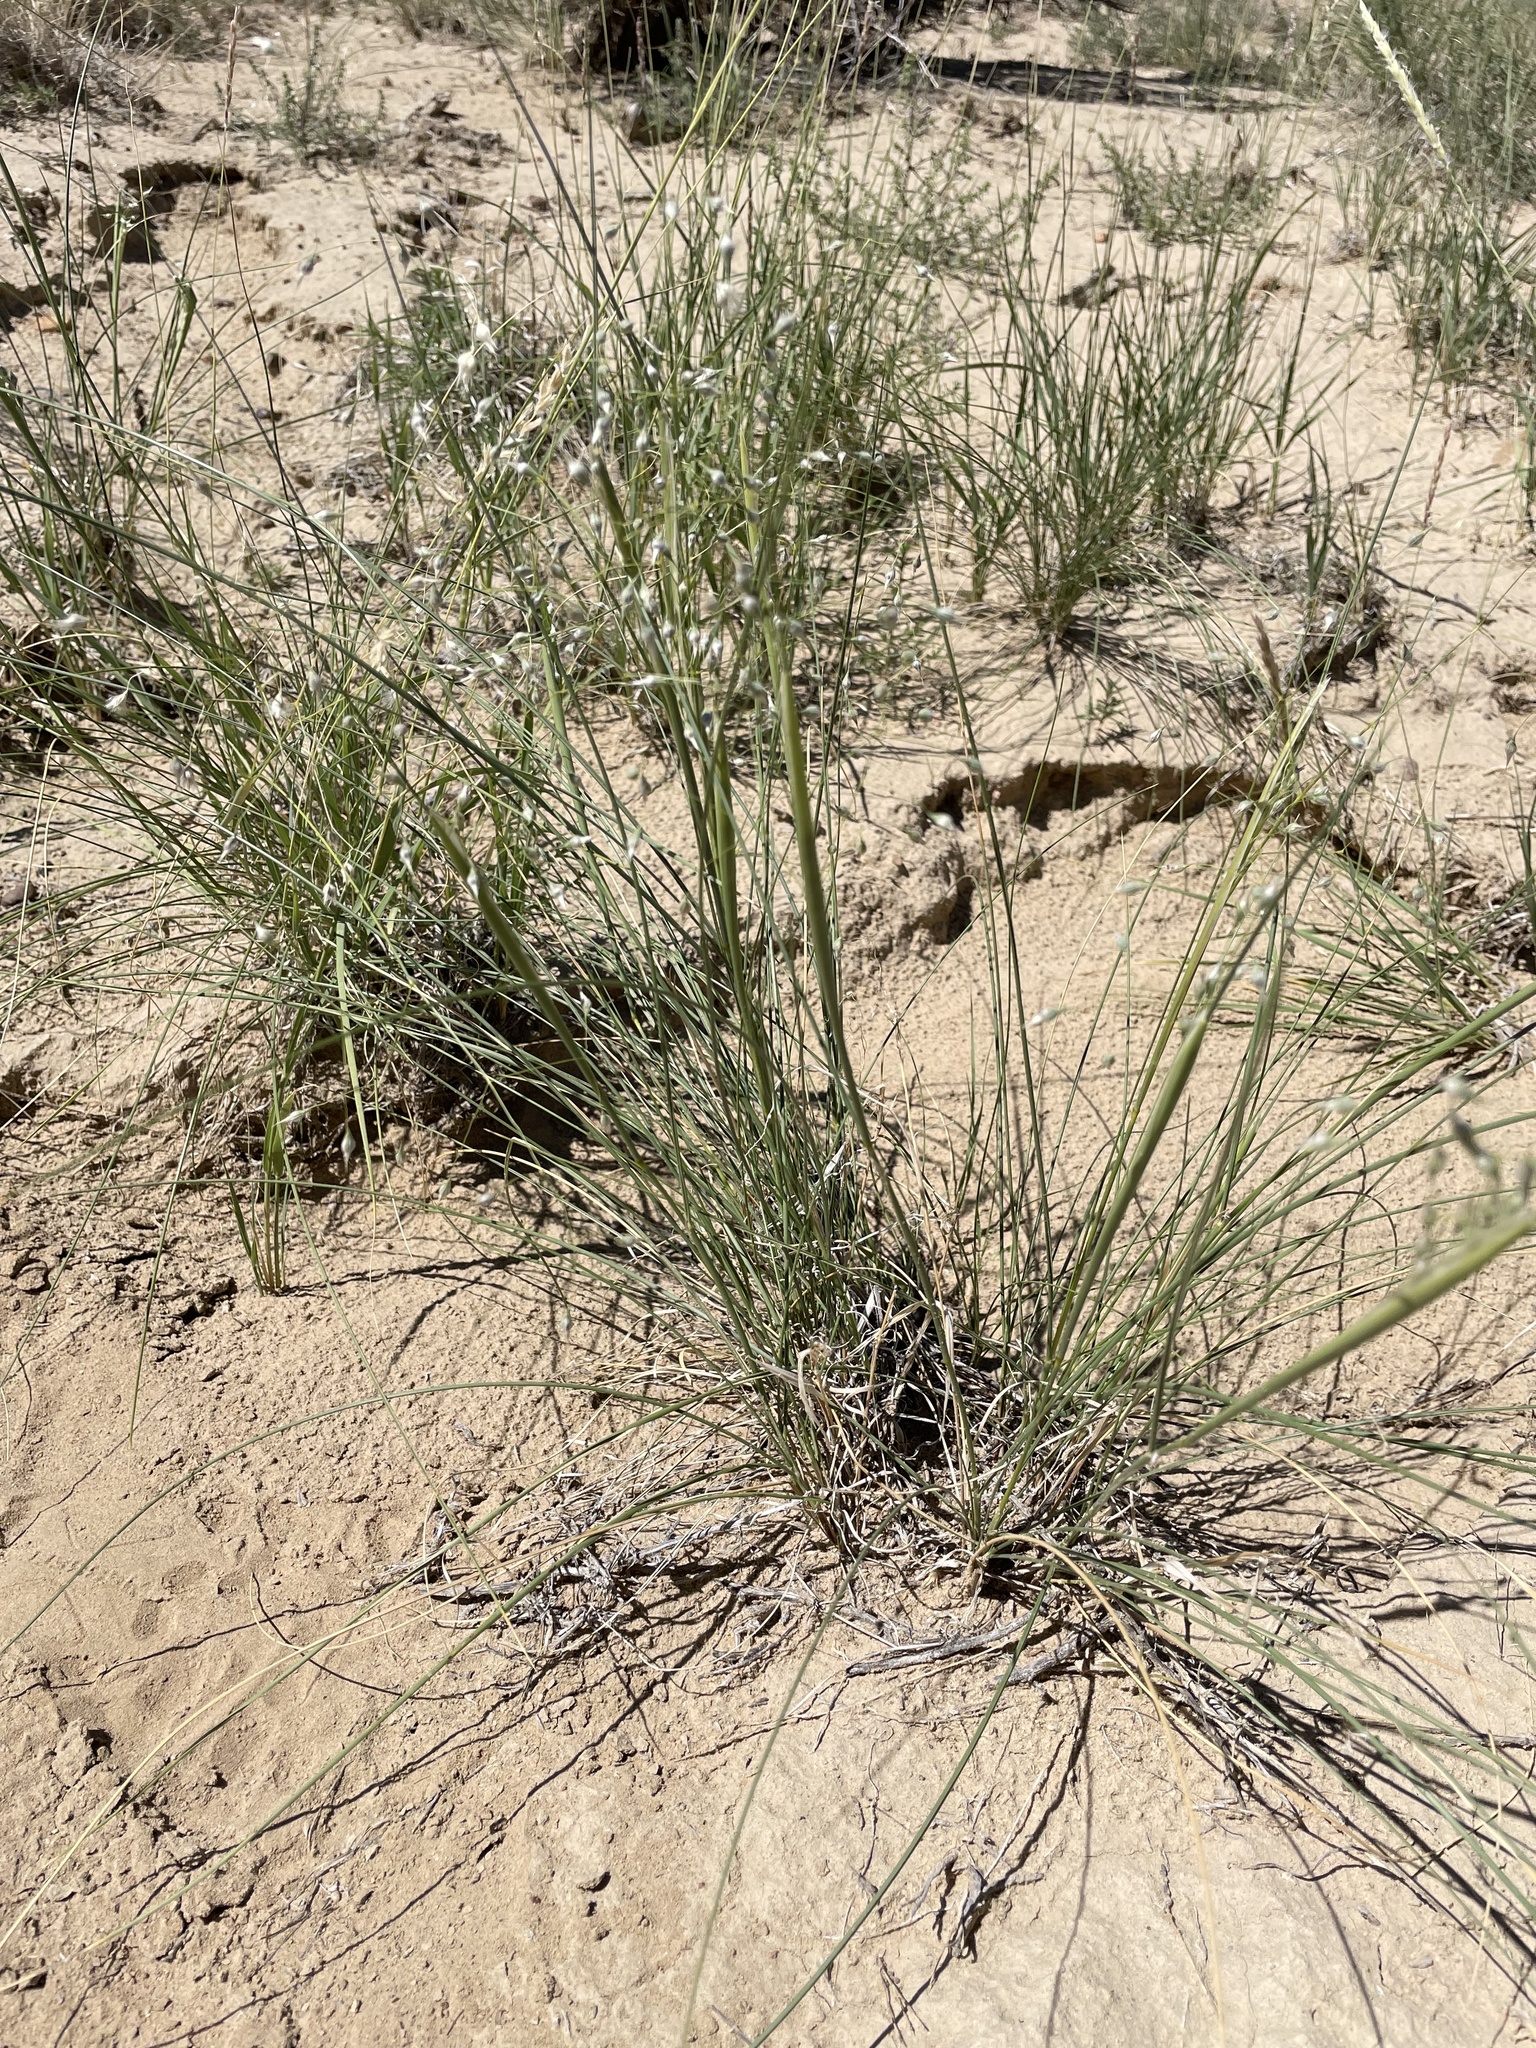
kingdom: Plantae
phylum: Tracheophyta
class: Liliopsida
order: Poales
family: Poaceae
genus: Eriocoma
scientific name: Eriocoma hymenoides
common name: Indian mountain ricegrass
